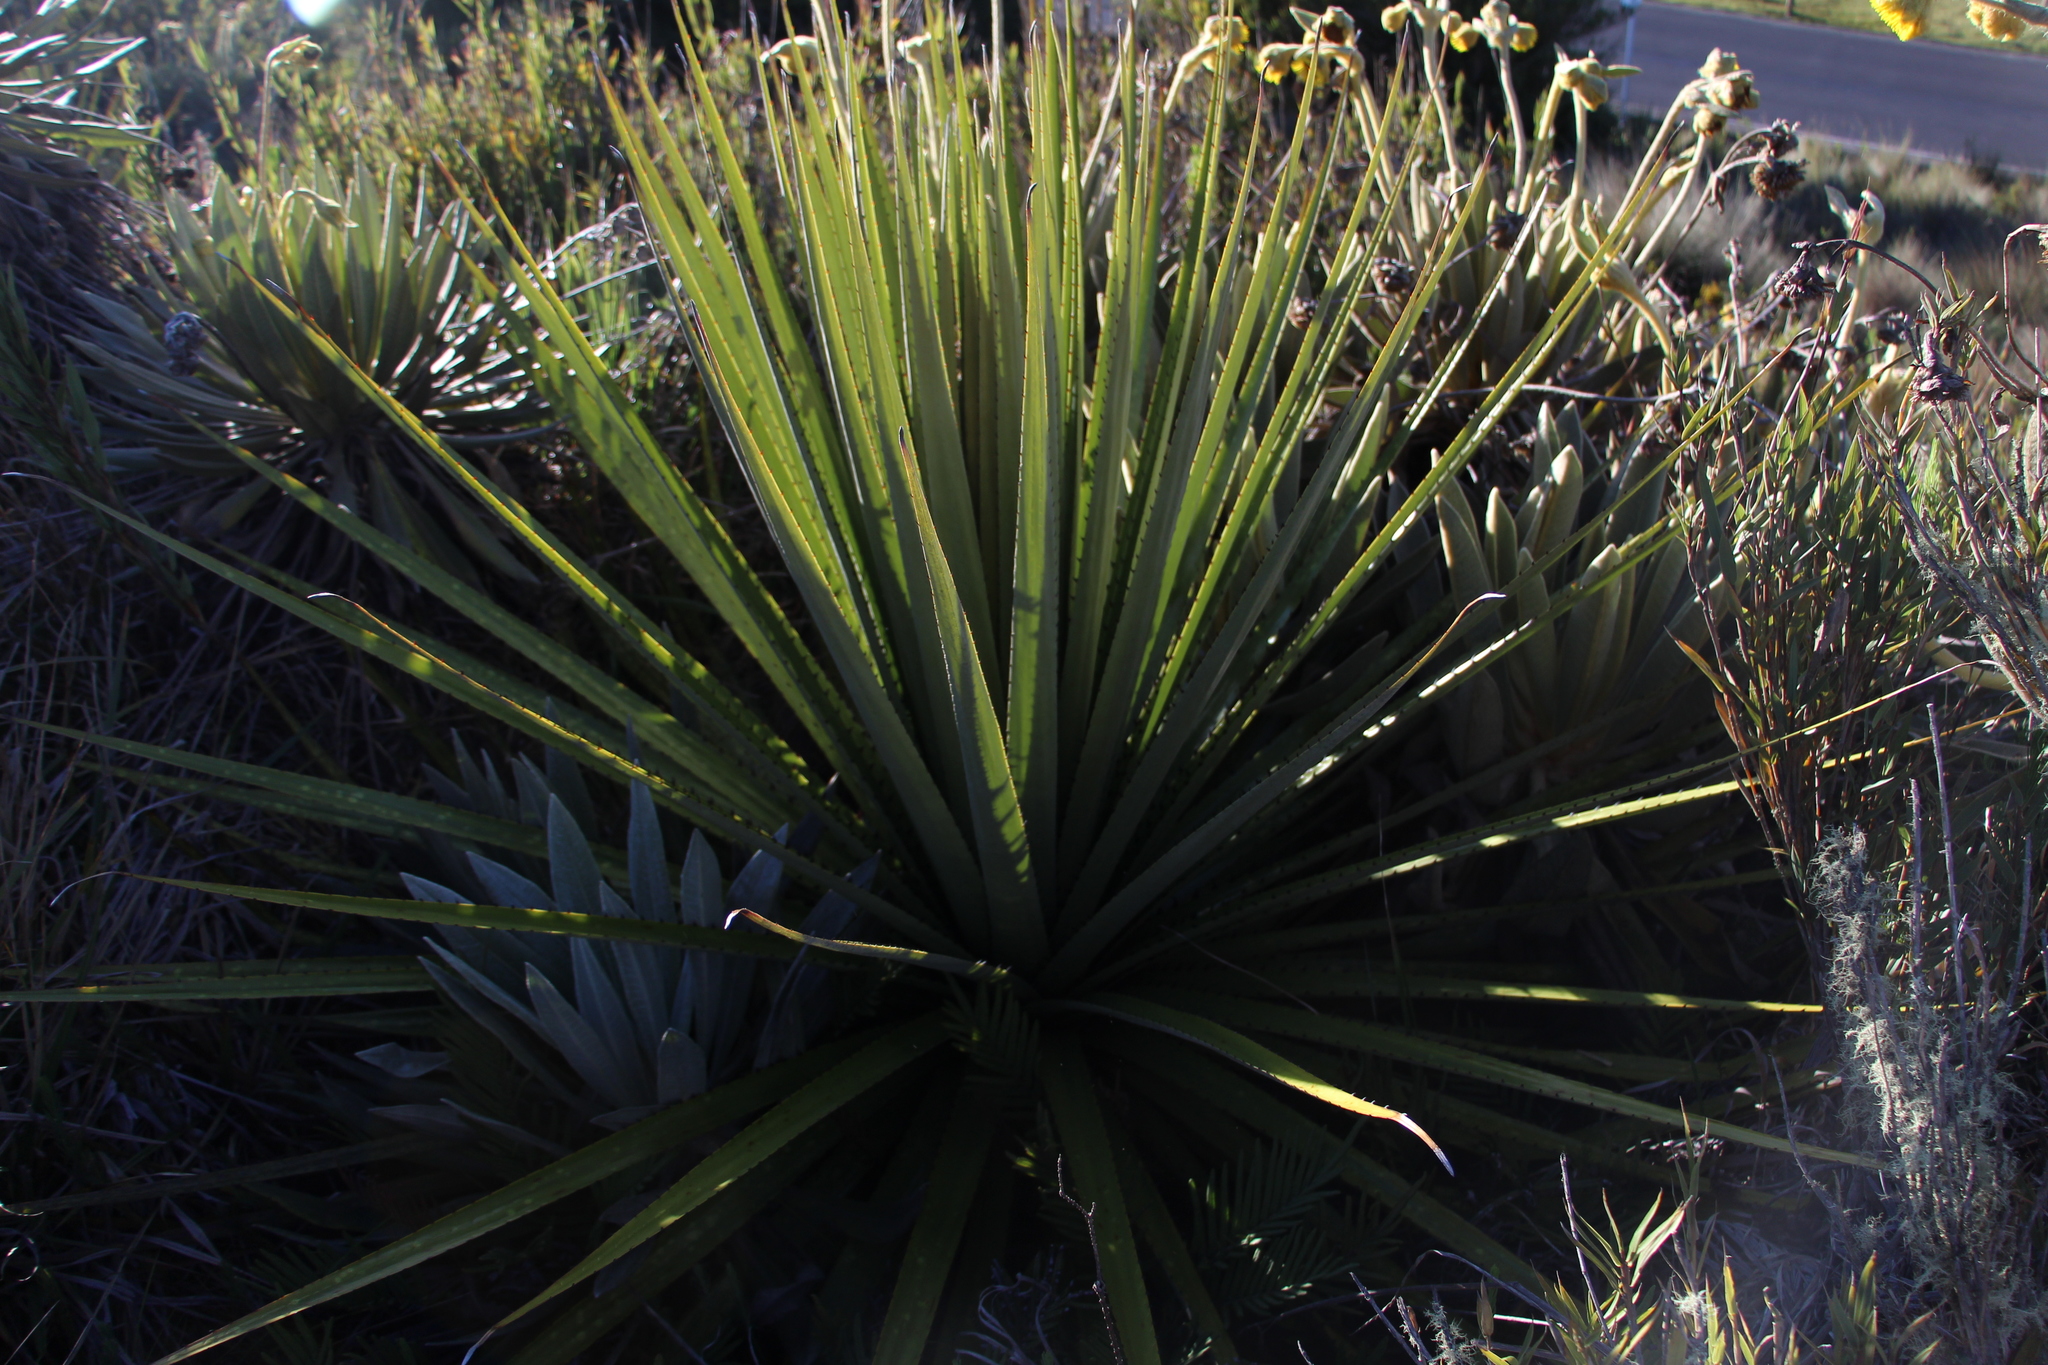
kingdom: Plantae
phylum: Tracheophyta
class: Liliopsida
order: Poales
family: Bromeliaceae
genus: Puya
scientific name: Puya goudotiana
